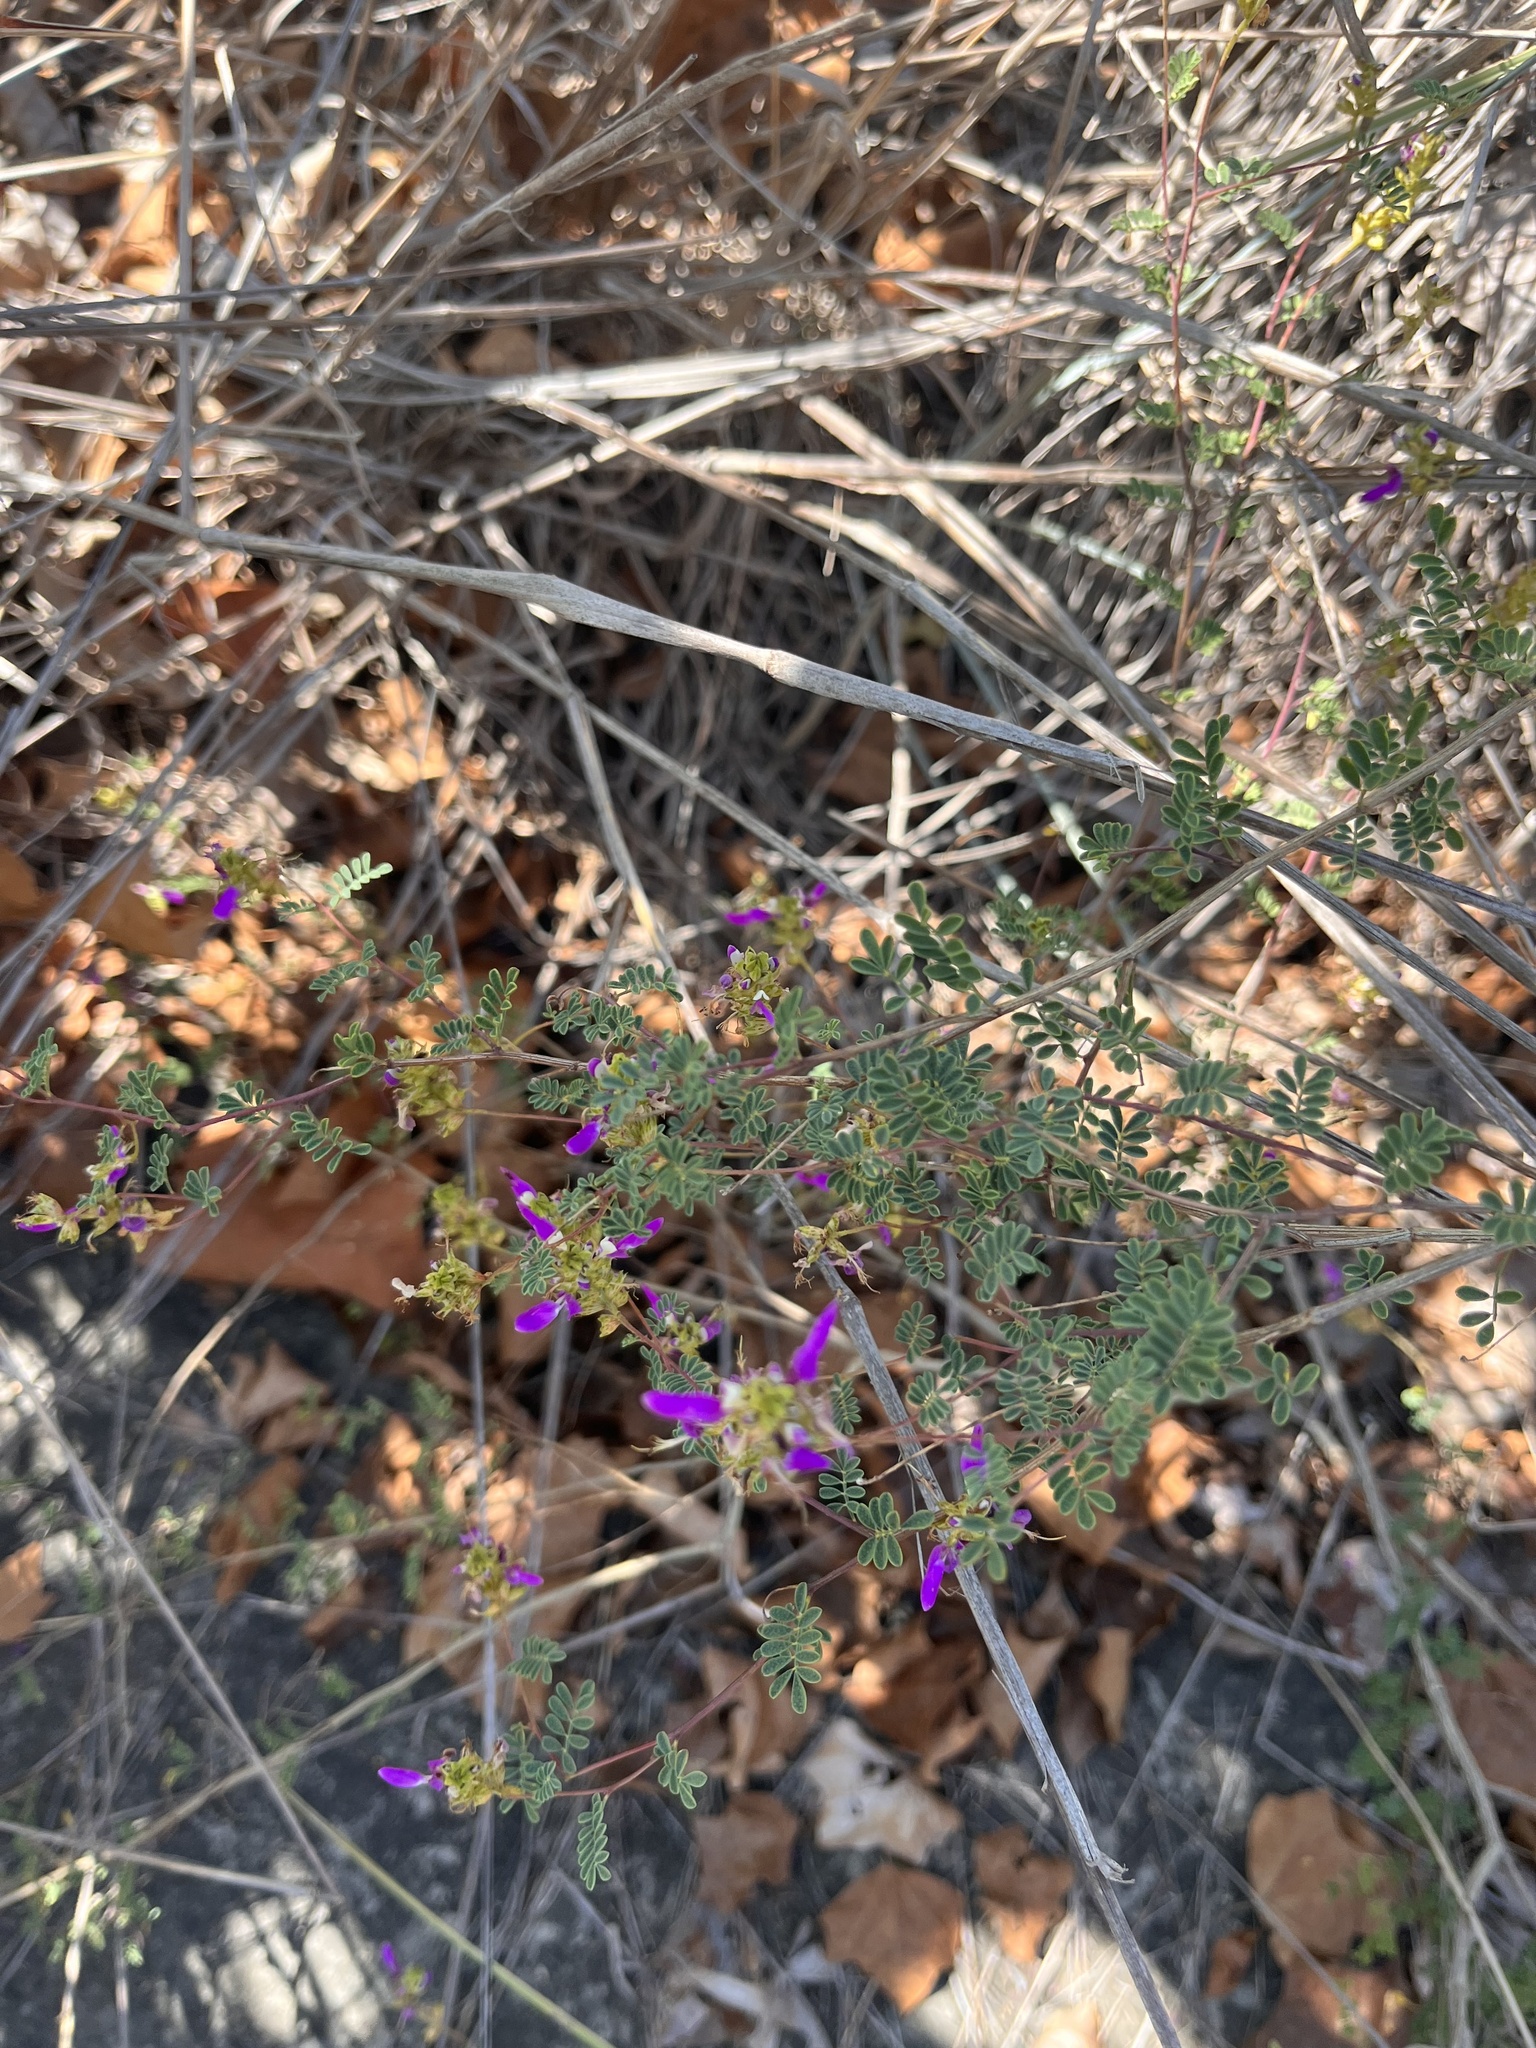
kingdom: Plantae
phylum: Tracheophyta
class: Magnoliopsida
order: Fabales
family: Fabaceae
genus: Dalea
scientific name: Dalea frutescens
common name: Black dalea
